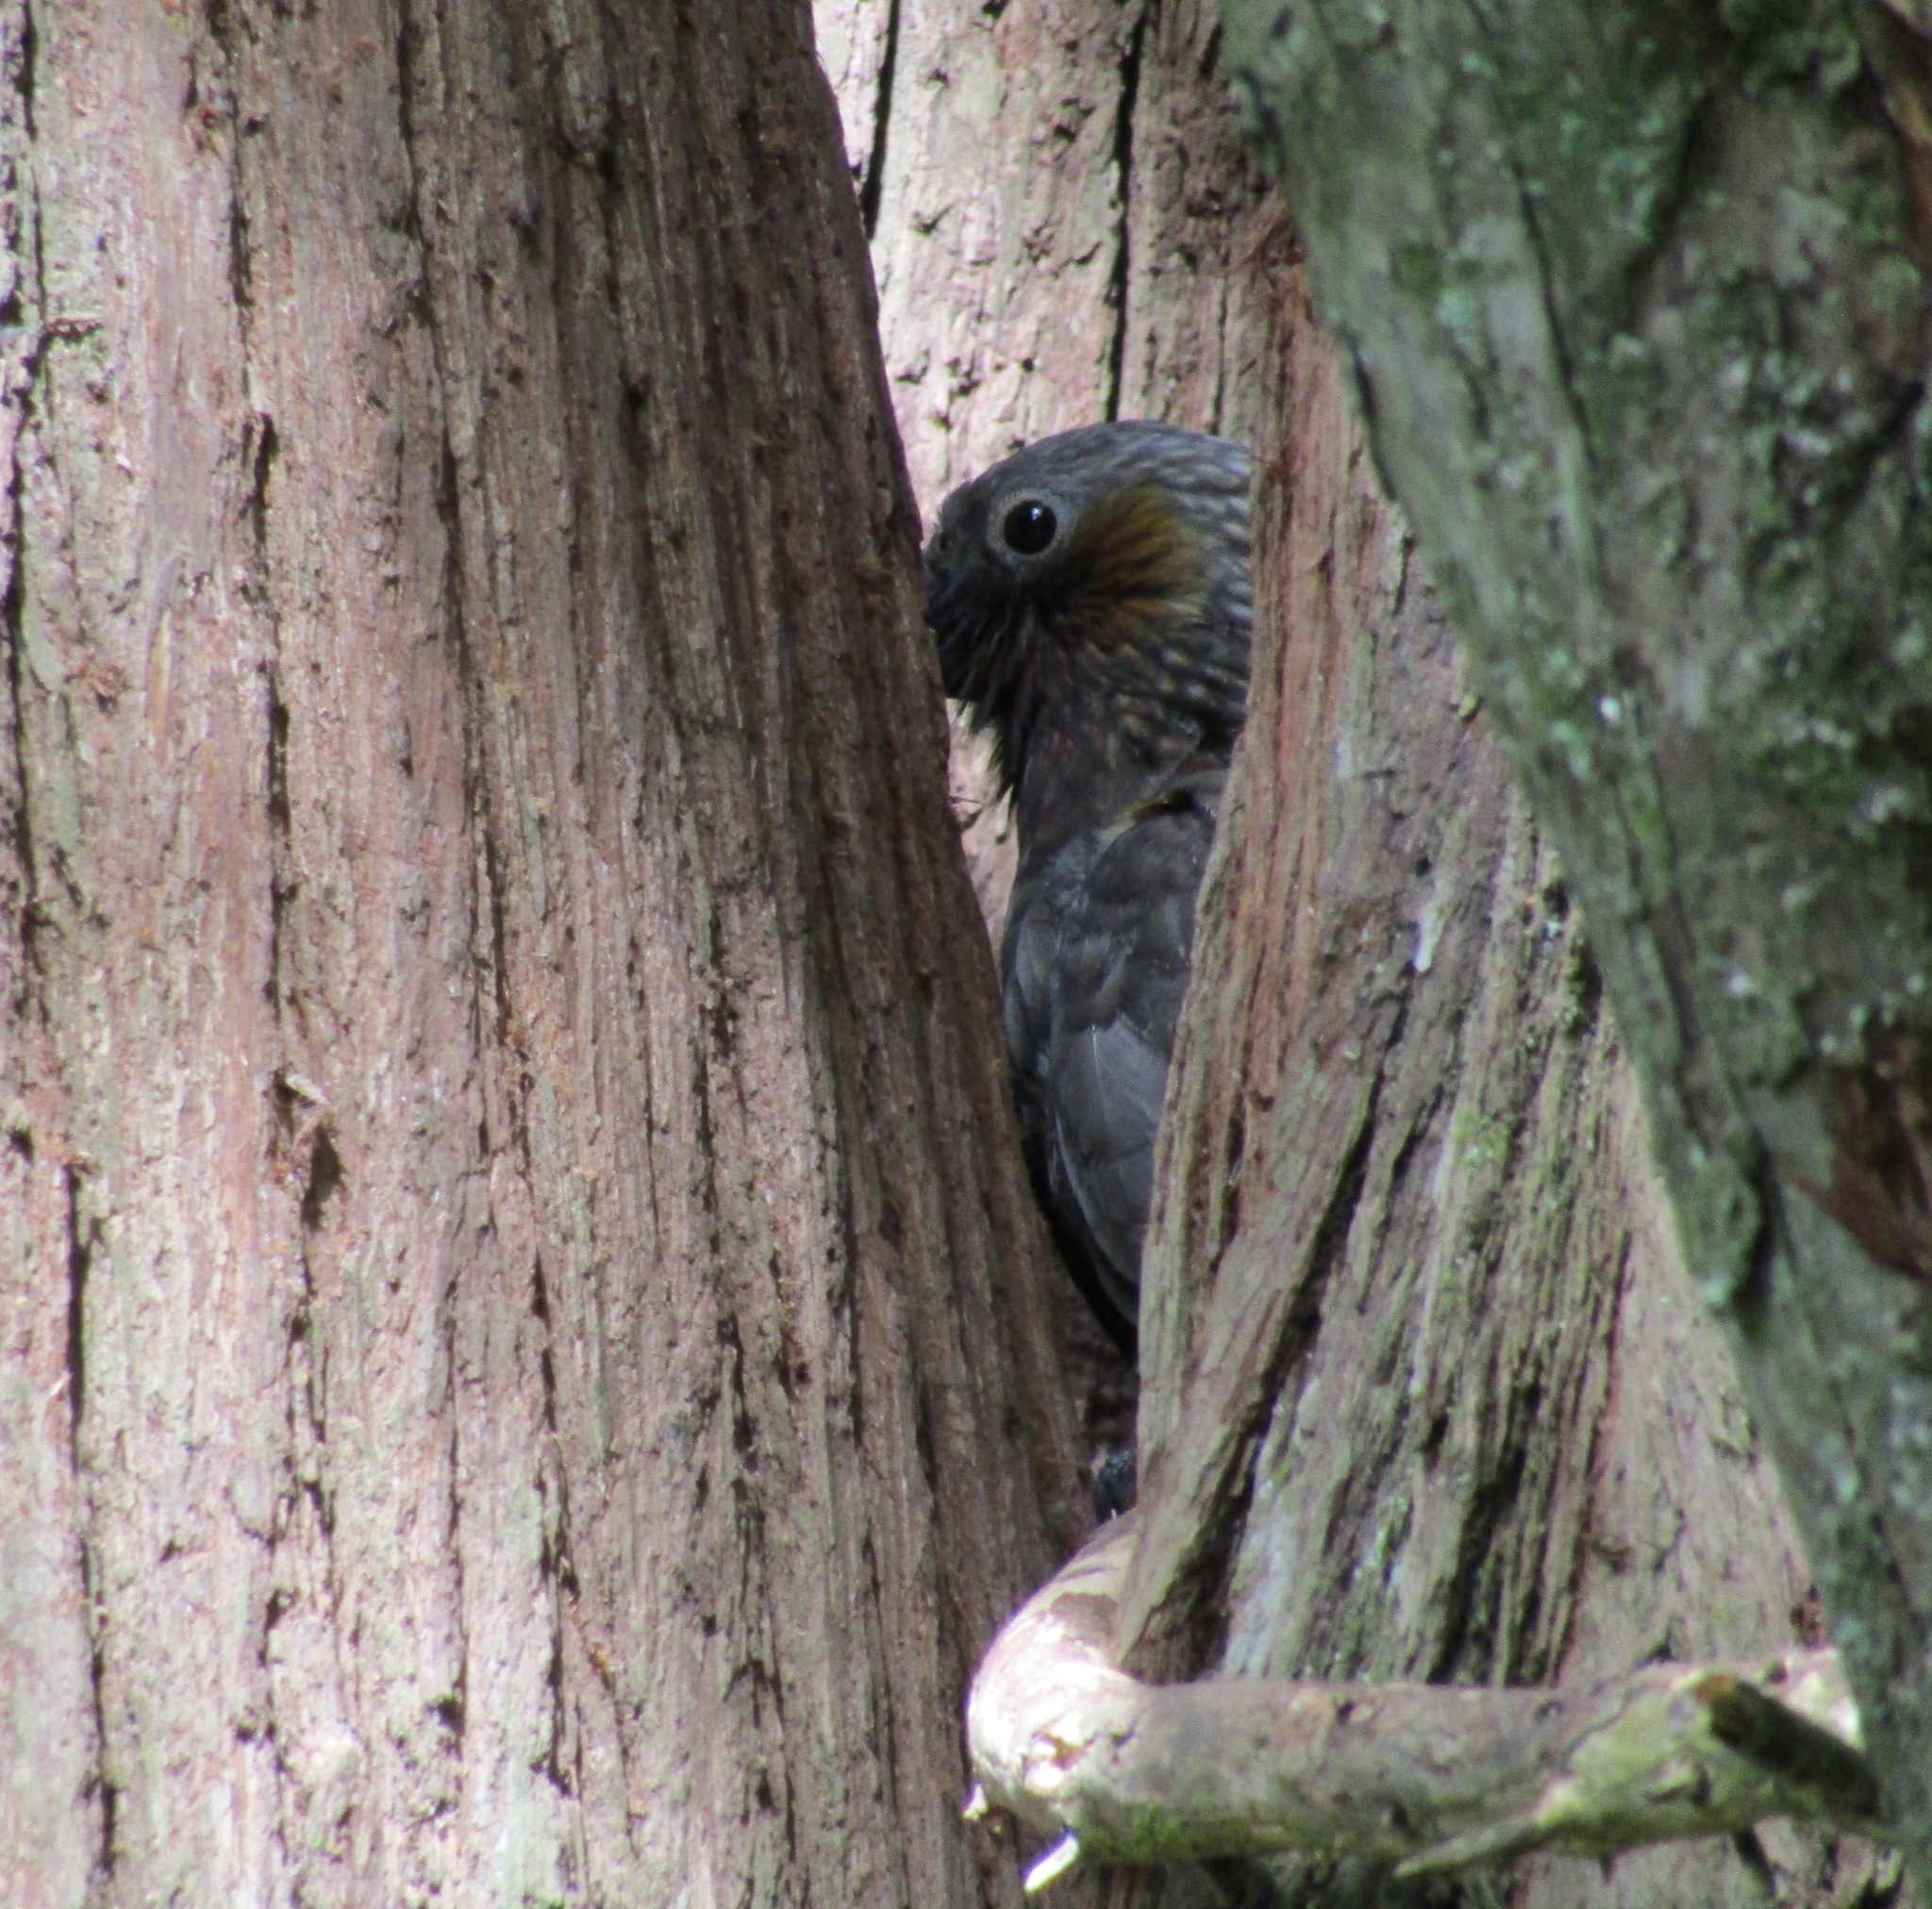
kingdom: Animalia
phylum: Chordata
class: Aves
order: Psittaciformes
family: Psittacidae
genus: Nestor
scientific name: Nestor meridionalis
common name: New zealand kaka
